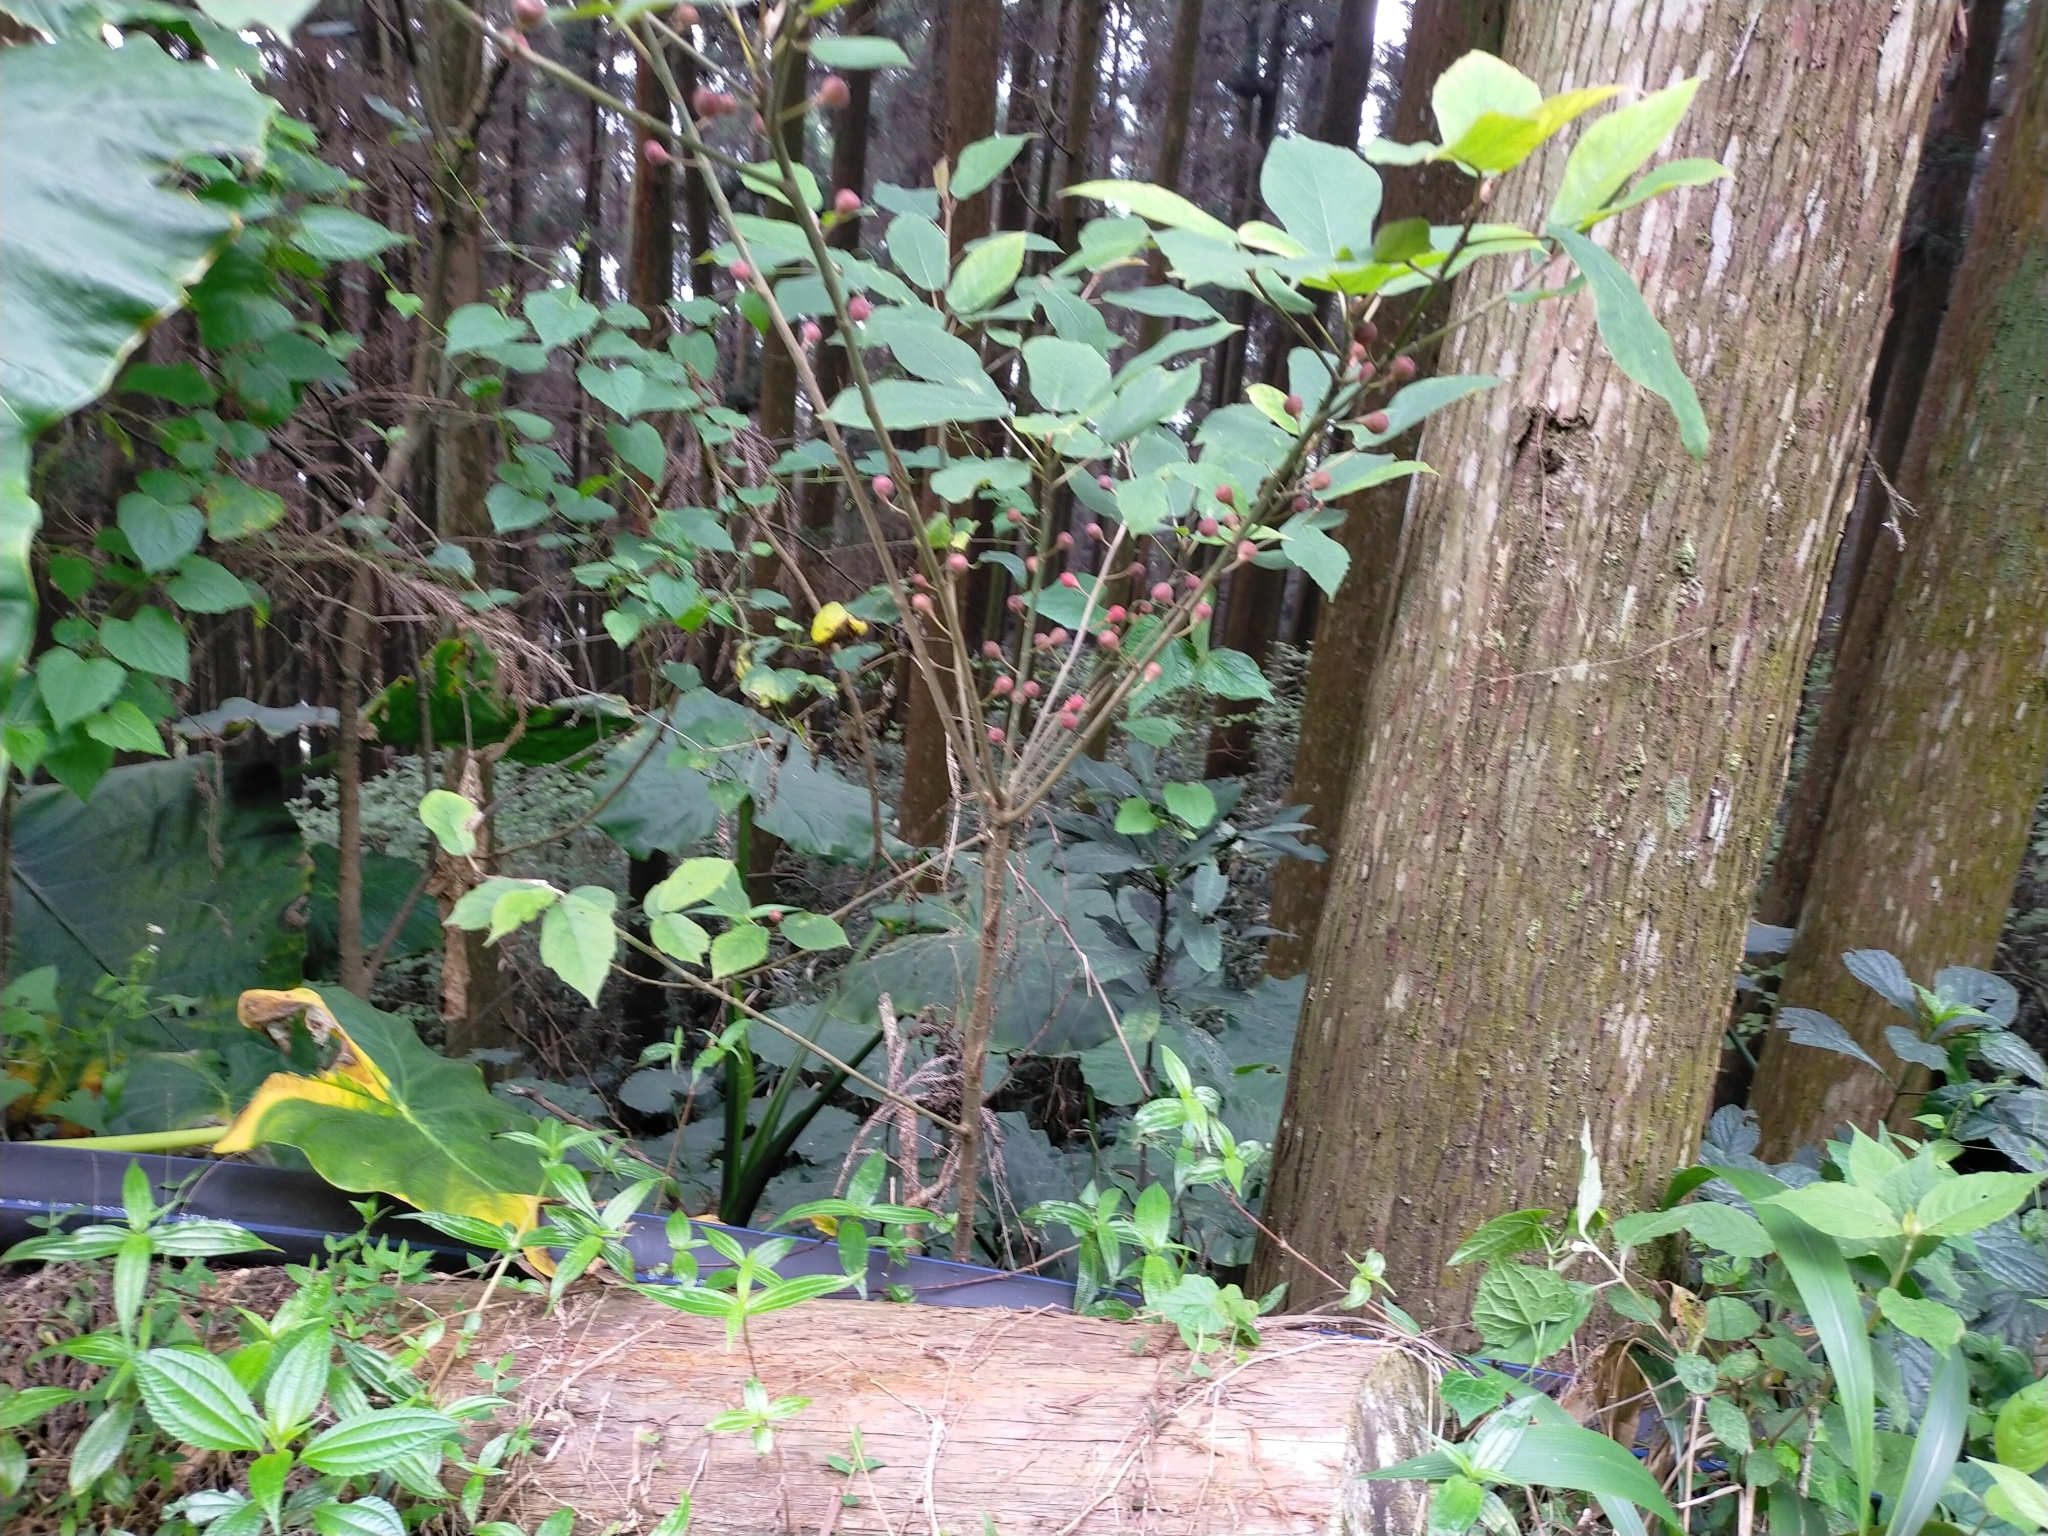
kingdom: Plantae
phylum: Tracheophyta
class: Magnoliopsida
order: Rosales
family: Moraceae
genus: Ficus
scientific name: Ficus erecta
